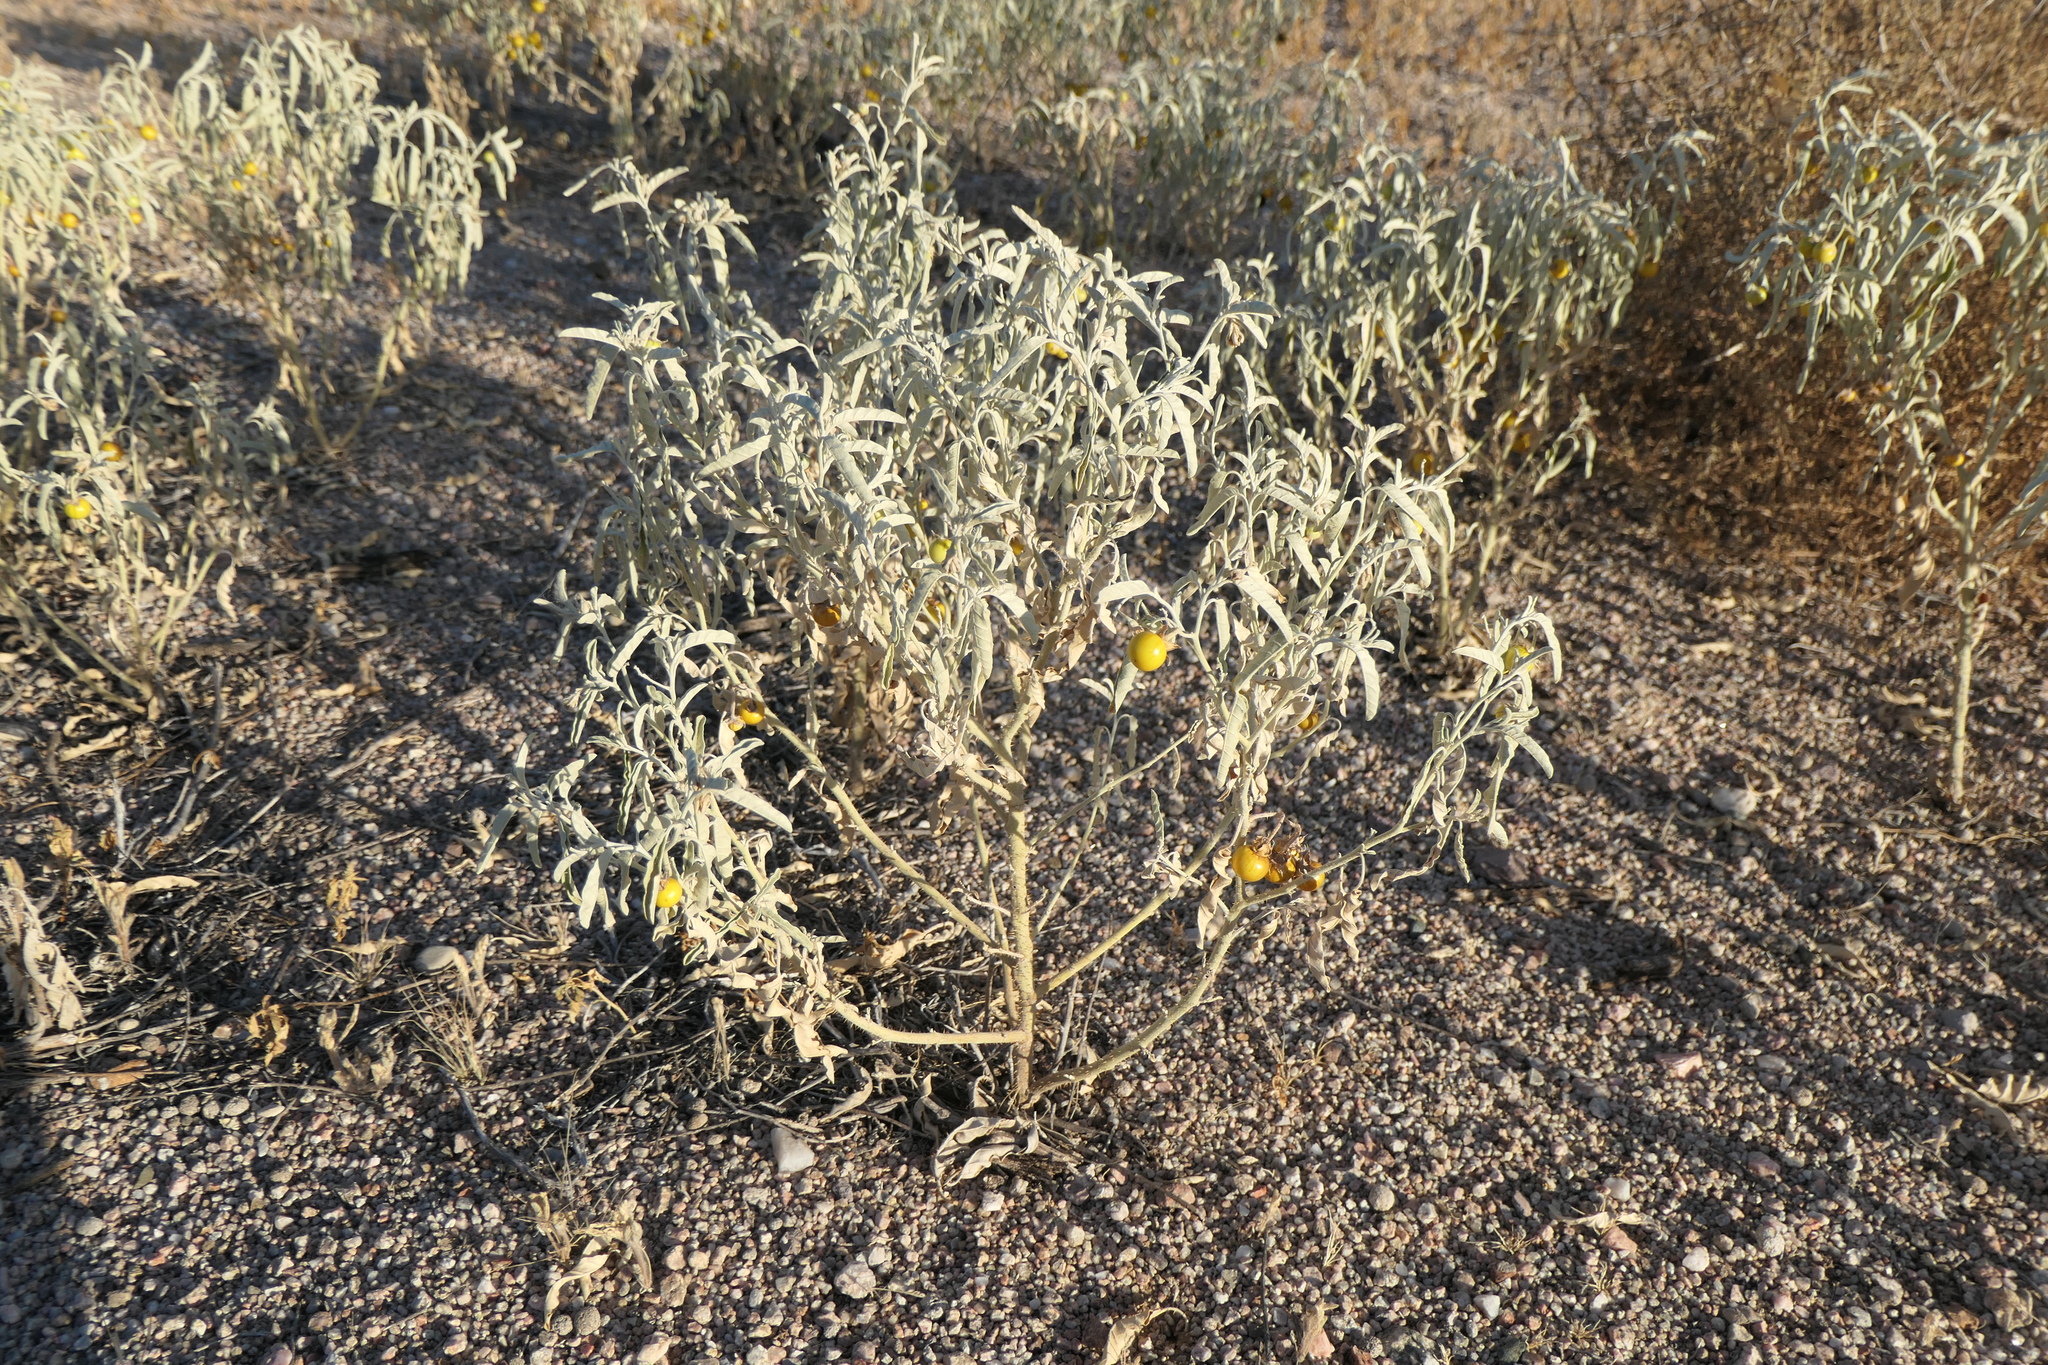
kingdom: Plantae
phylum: Tracheophyta
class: Magnoliopsida
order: Solanales
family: Solanaceae
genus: Solanum
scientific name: Solanum elaeagnifolium
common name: Silverleaf nightshade
